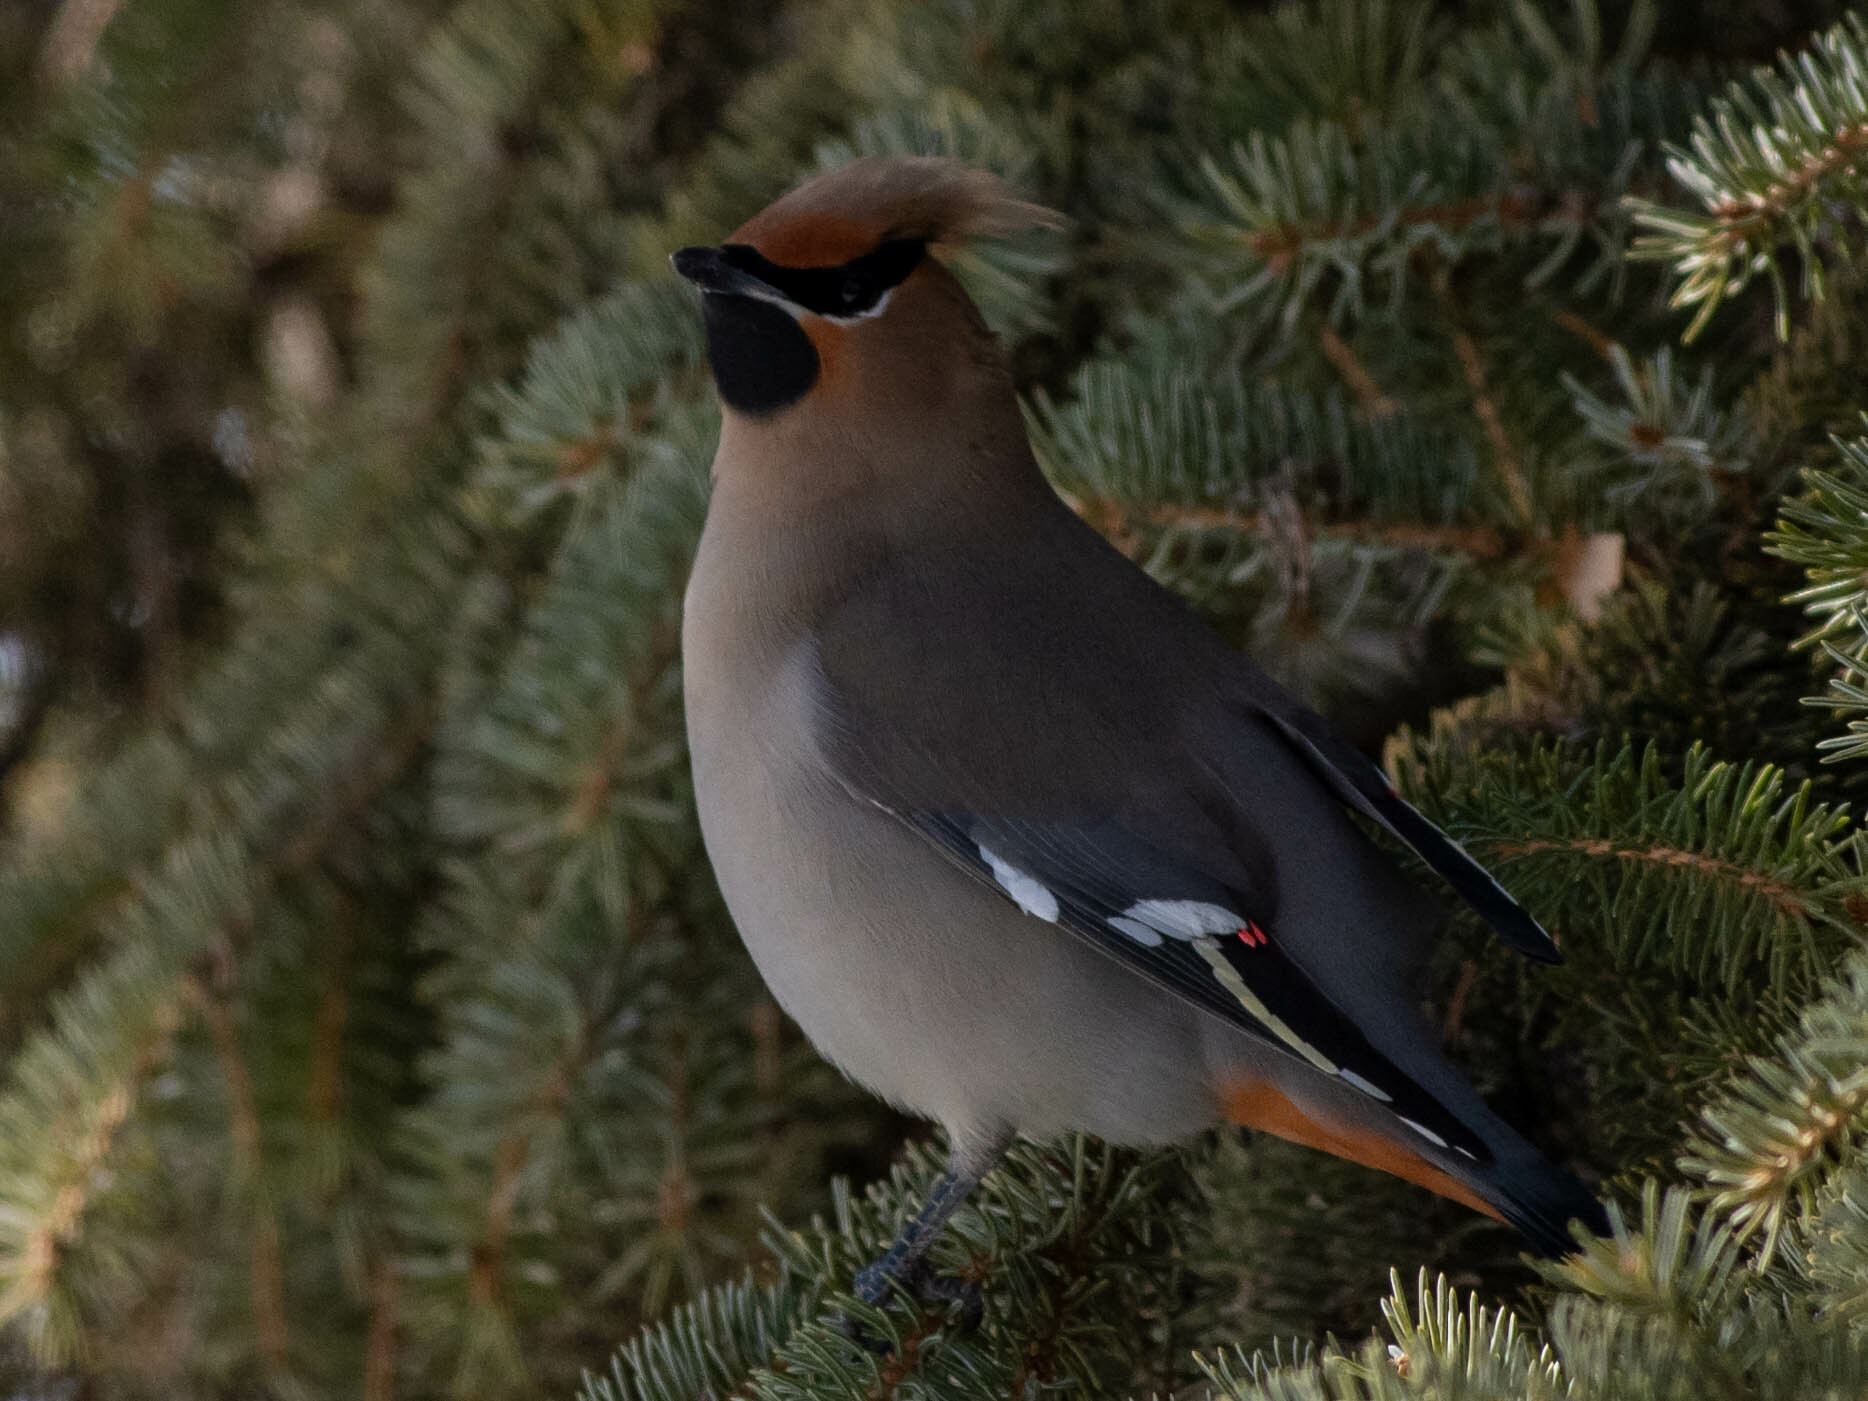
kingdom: Animalia
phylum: Chordata
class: Aves
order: Passeriformes
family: Bombycillidae
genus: Bombycilla
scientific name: Bombycilla garrulus
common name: Bohemian waxwing
